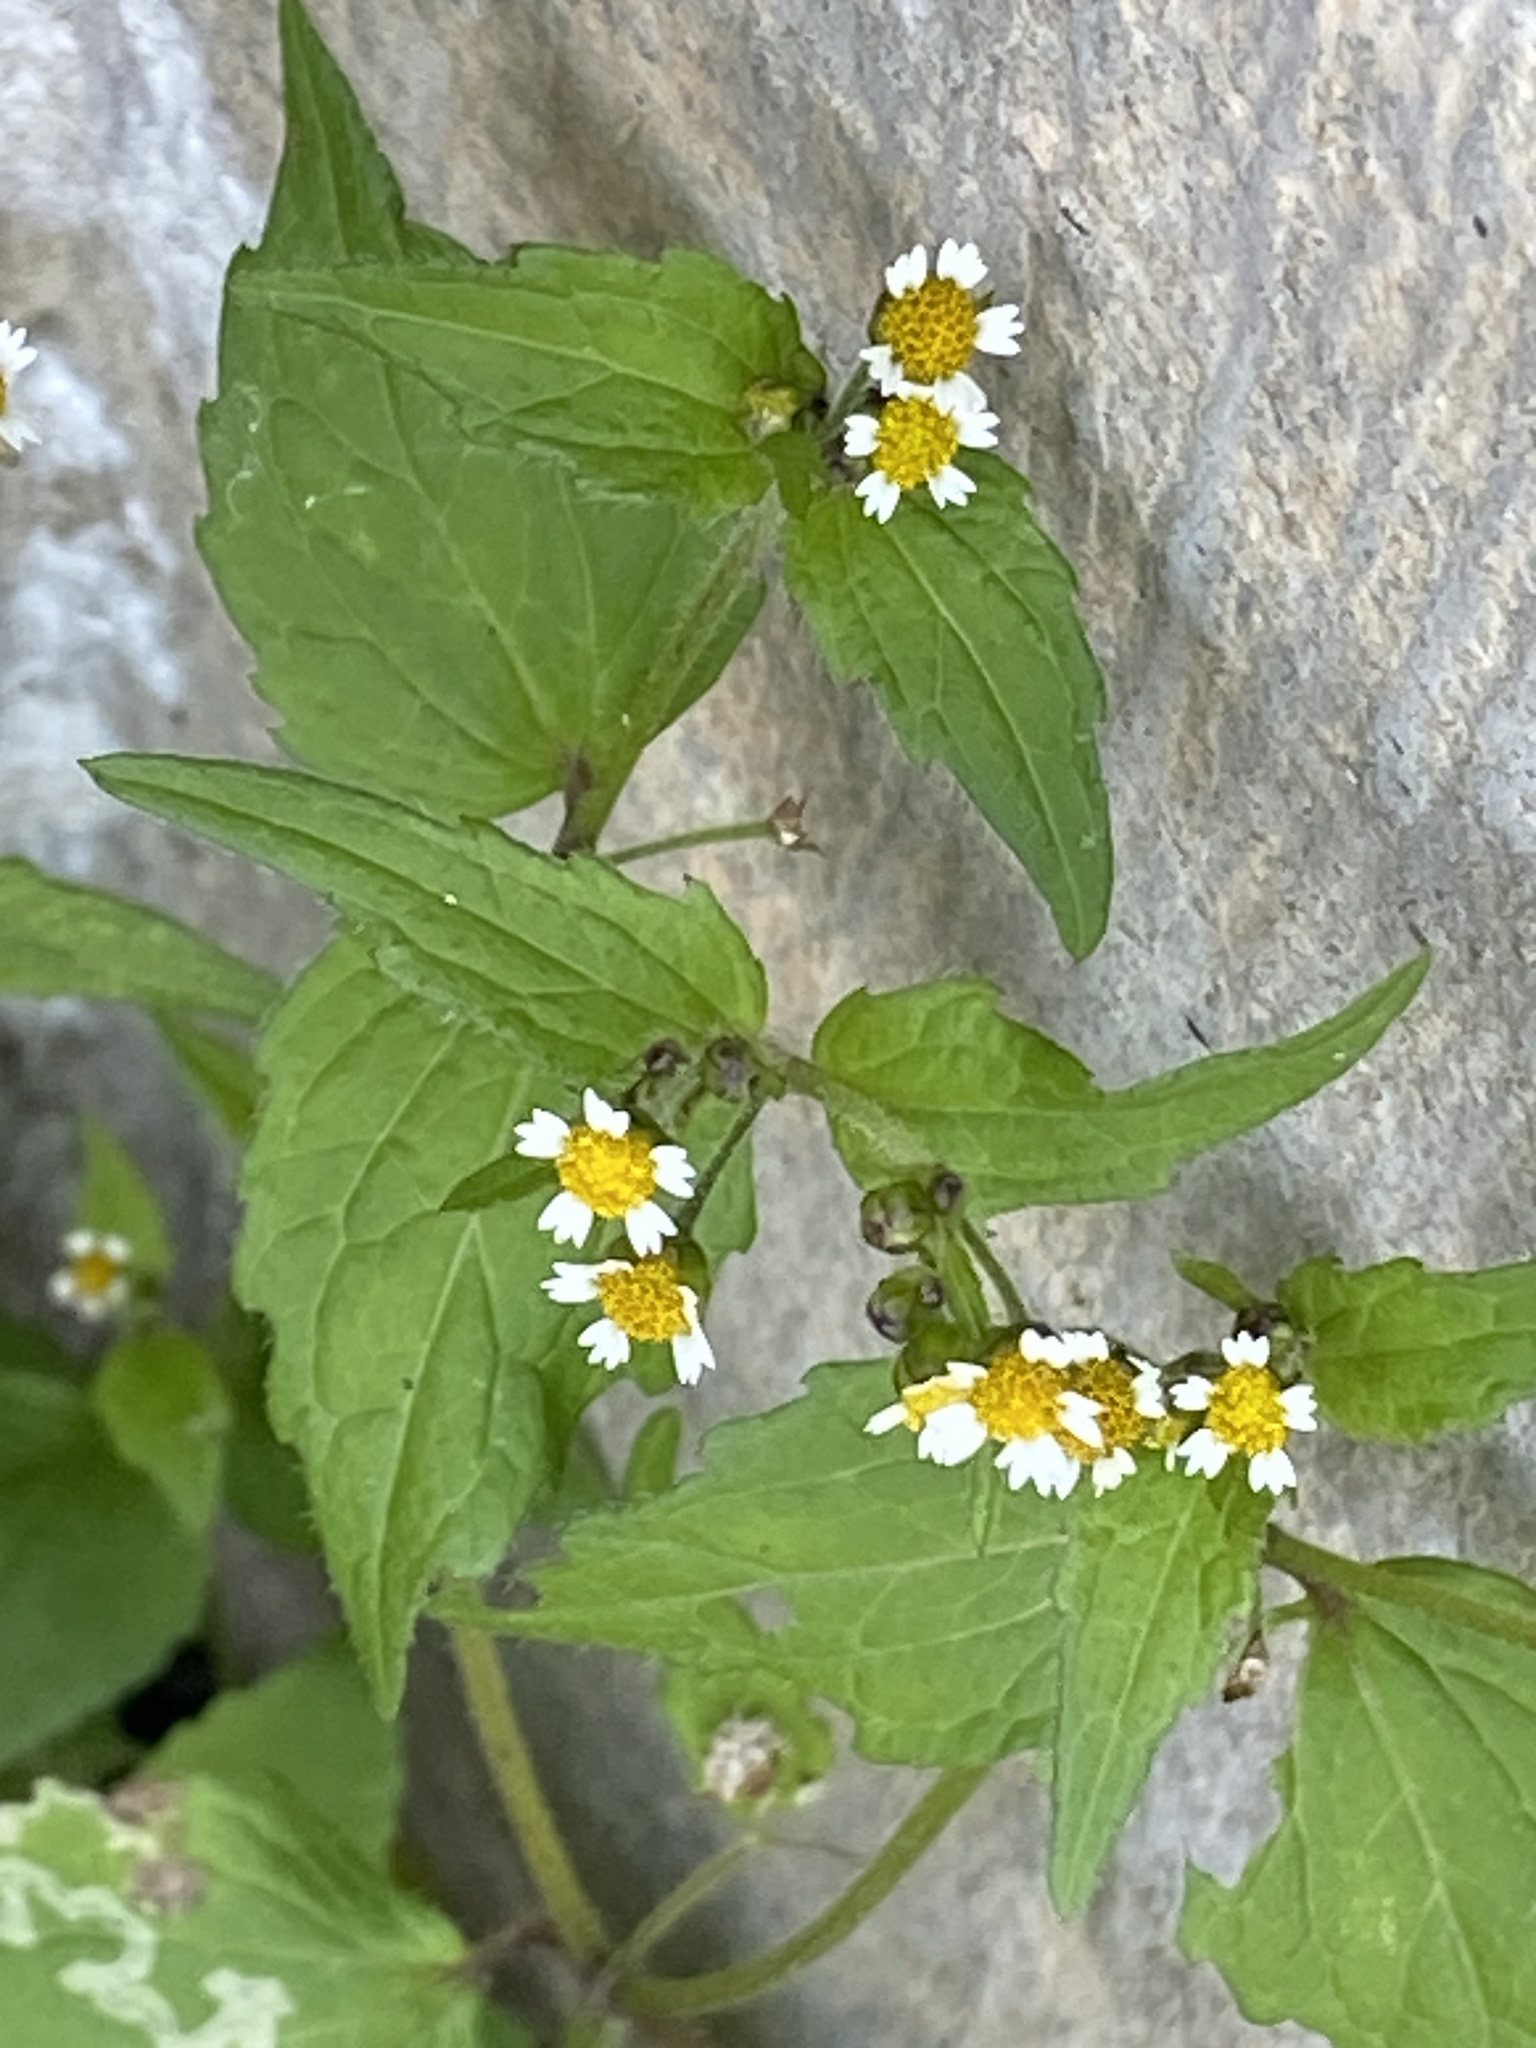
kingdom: Plantae
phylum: Tracheophyta
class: Magnoliopsida
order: Asterales
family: Asteraceae
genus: Galinsoga
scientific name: Galinsoga quadriradiata
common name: Shaggy soldier
